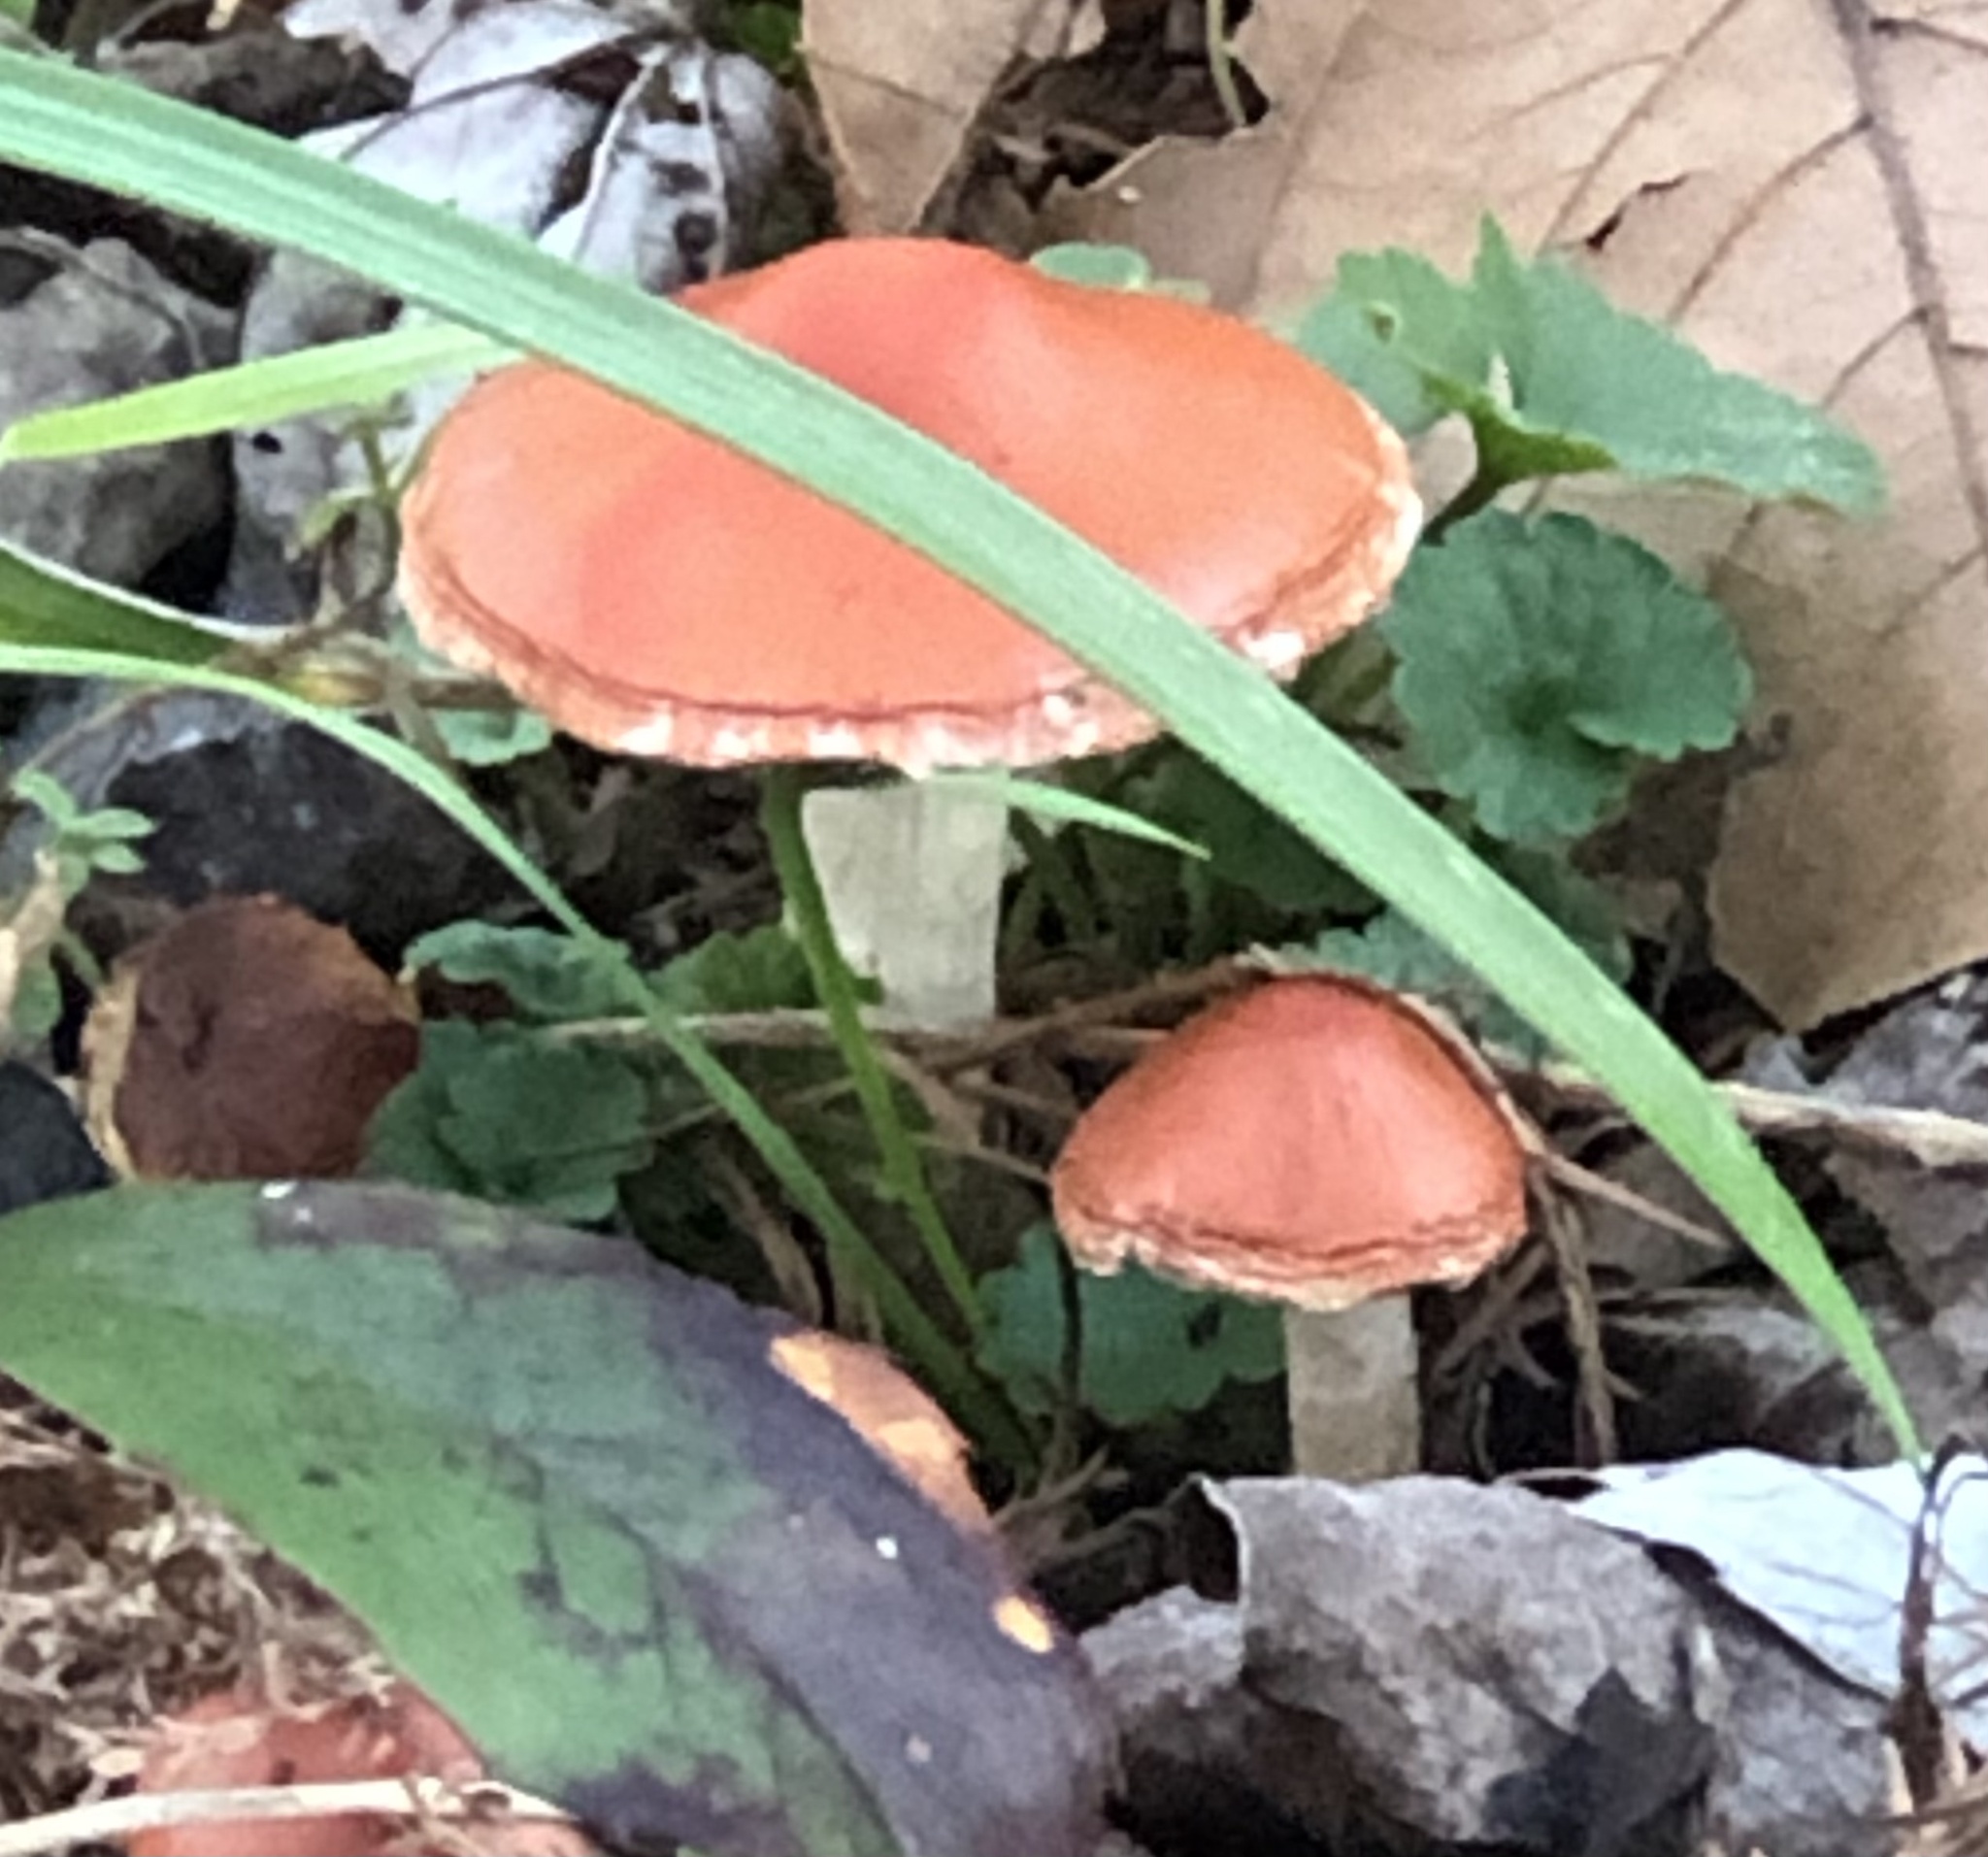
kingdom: Fungi
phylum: Basidiomycota
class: Agaricomycetes
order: Agaricales
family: Strophariaceae
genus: Leratiomyces
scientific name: Leratiomyces ceres
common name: Redlead roundhead
